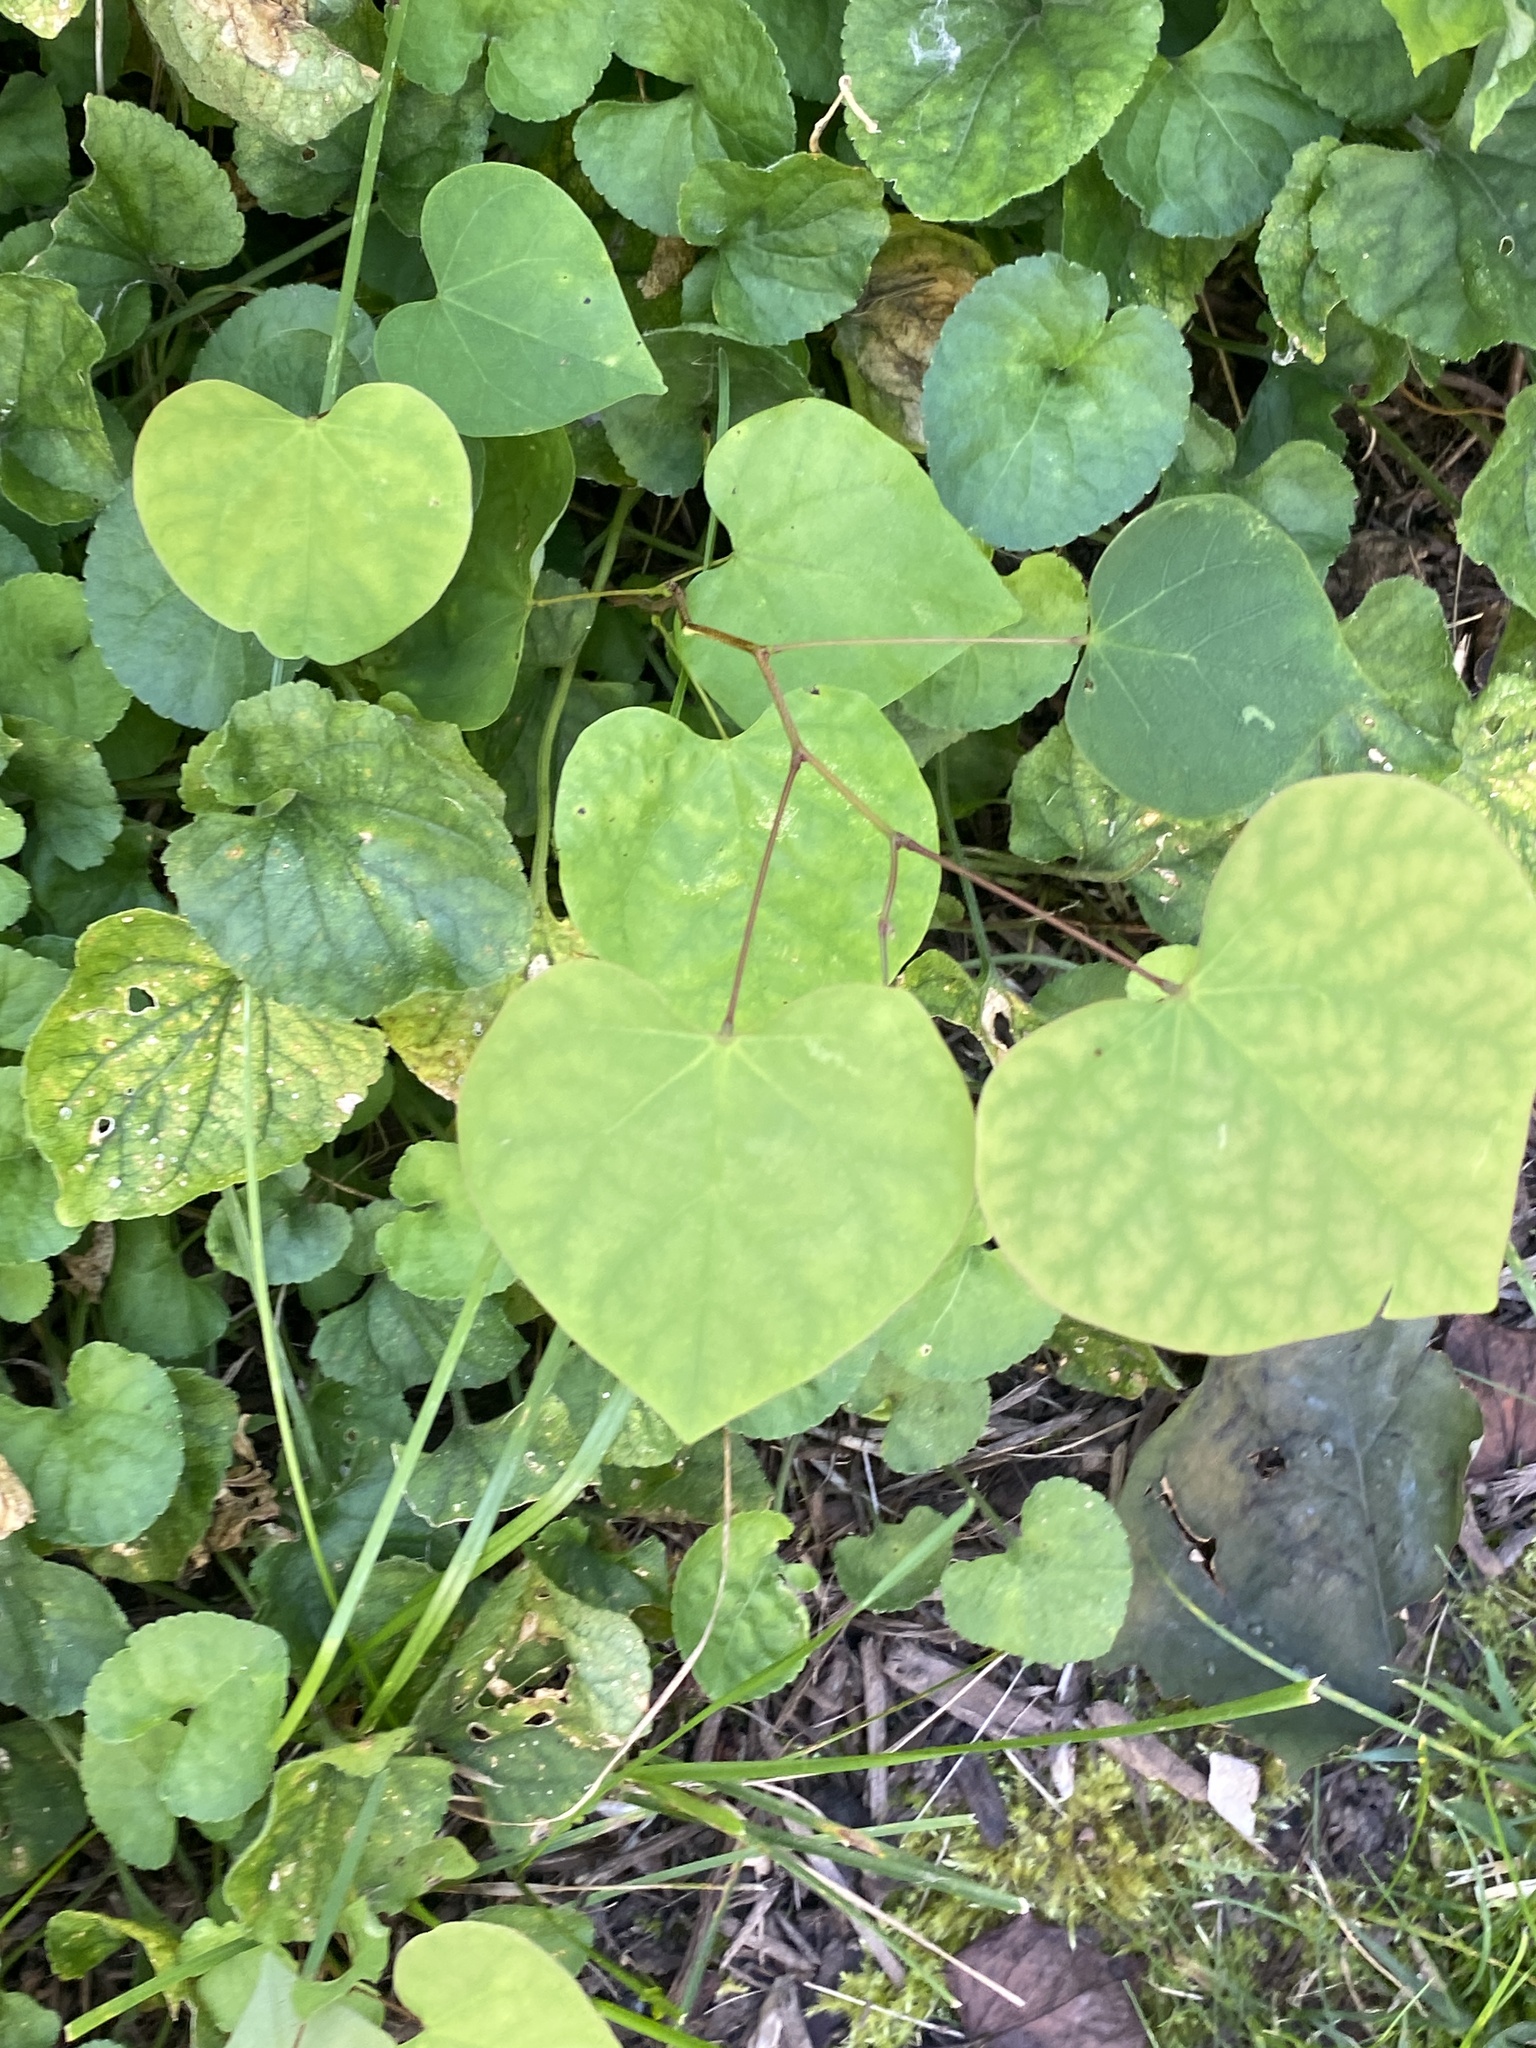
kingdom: Plantae
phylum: Tracheophyta
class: Magnoliopsida
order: Fabales
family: Fabaceae
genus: Cercis
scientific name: Cercis canadensis
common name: Eastern redbud
